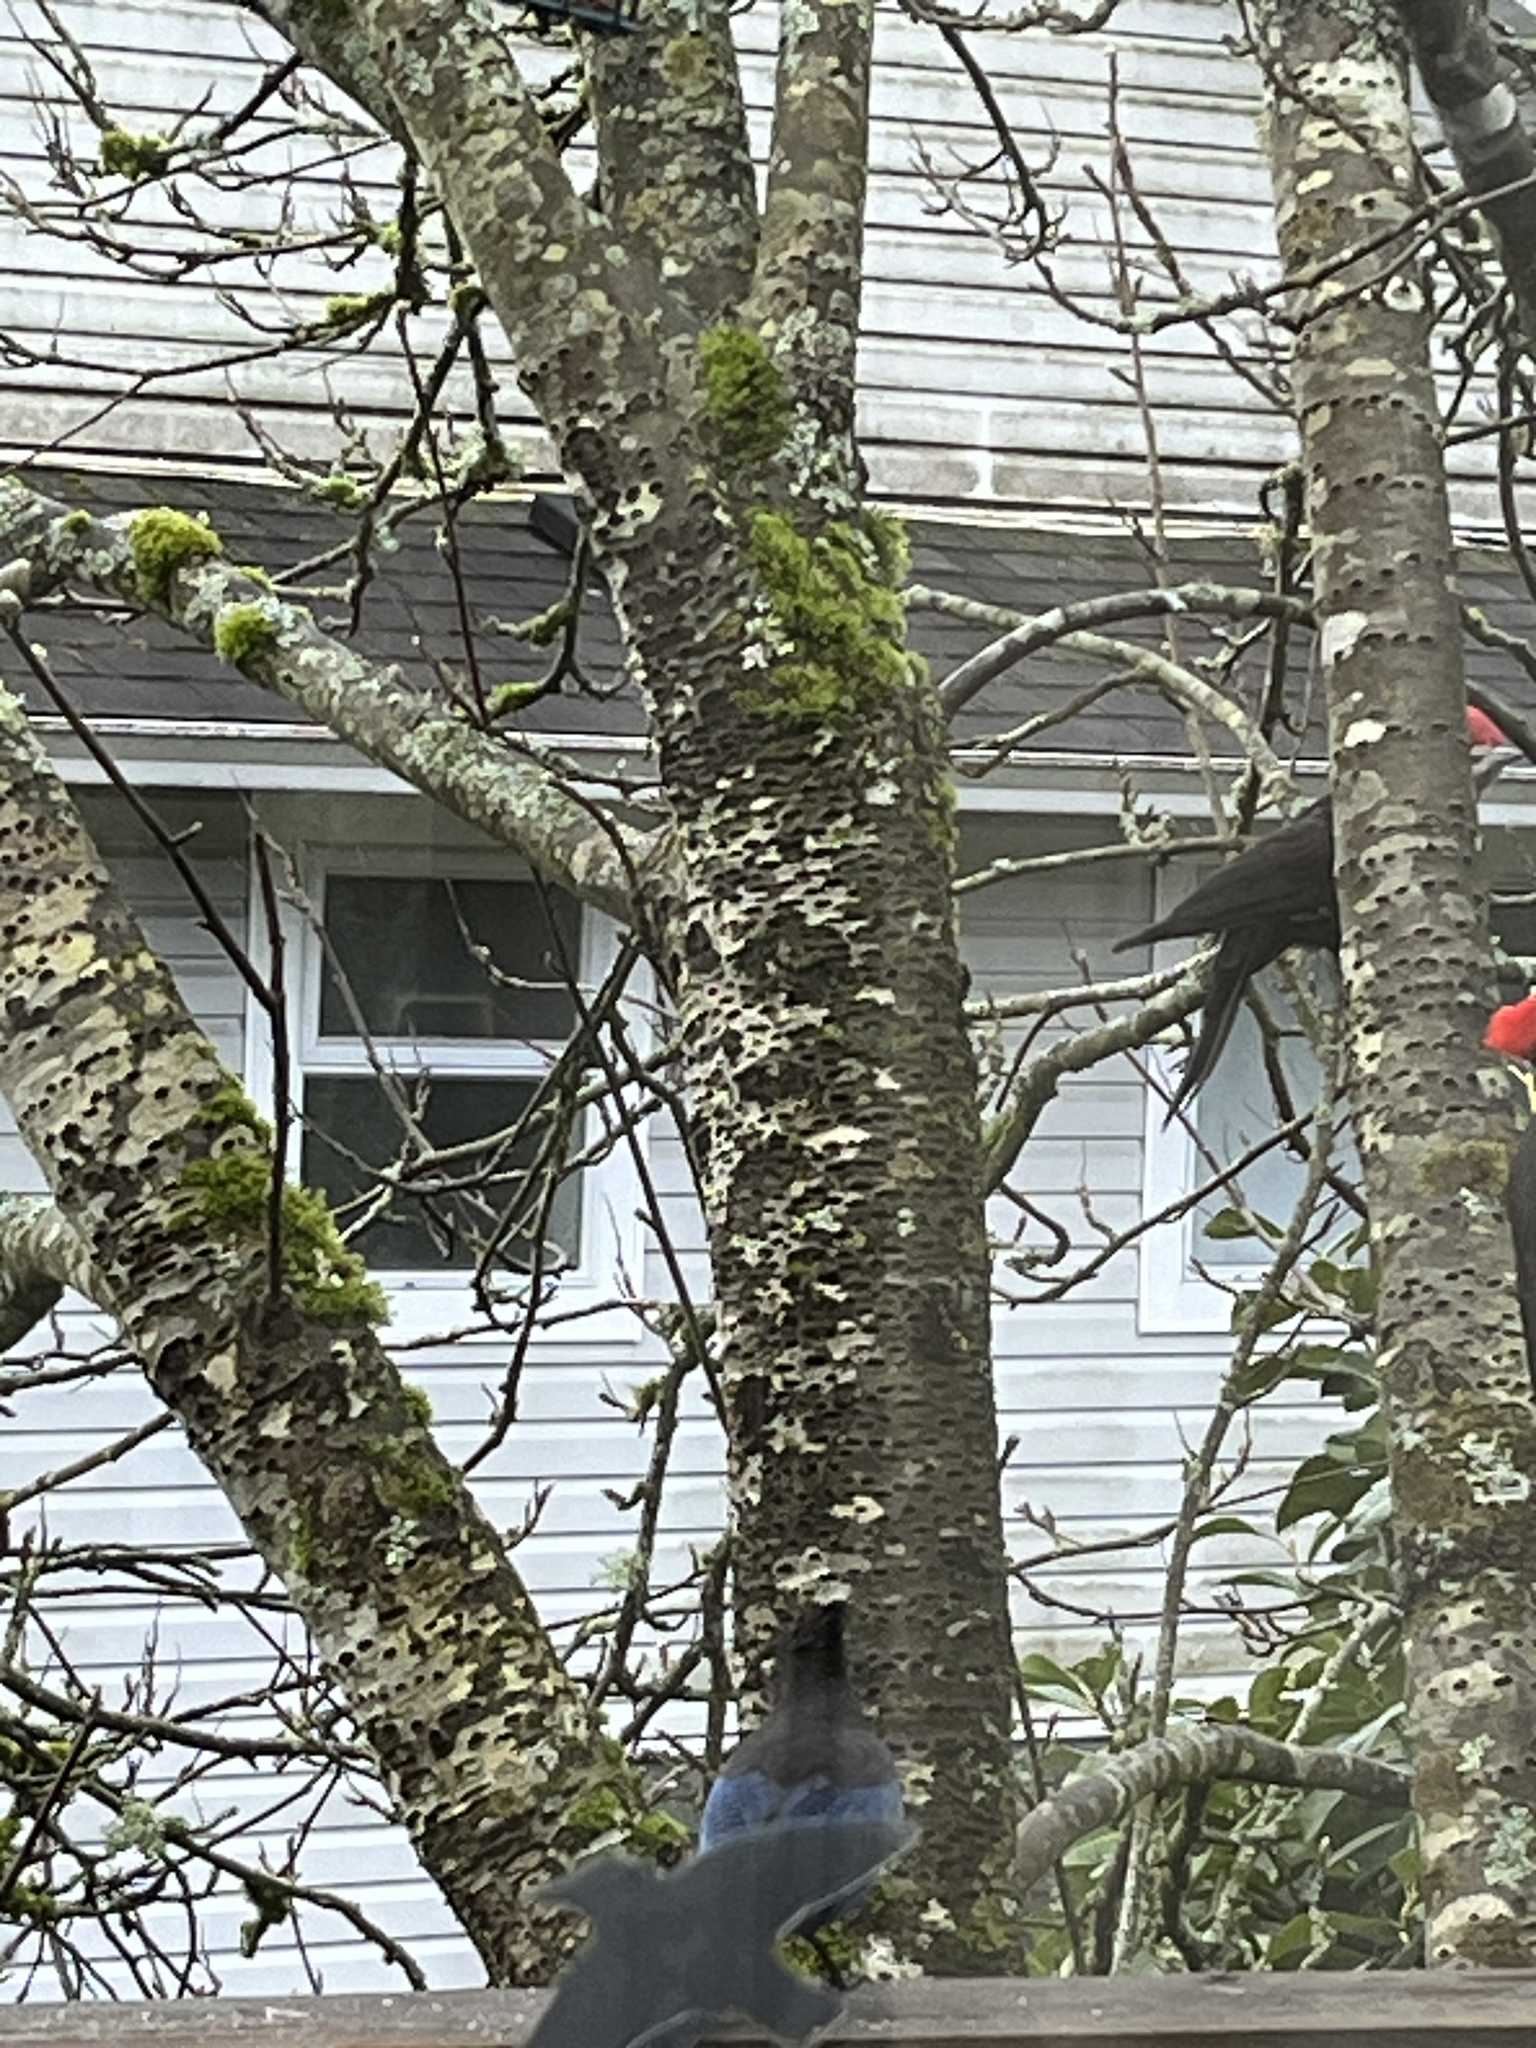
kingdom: Animalia
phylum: Chordata
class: Aves
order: Piciformes
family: Picidae
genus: Dryocopus
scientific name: Dryocopus pileatus
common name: Pileated woodpecker
